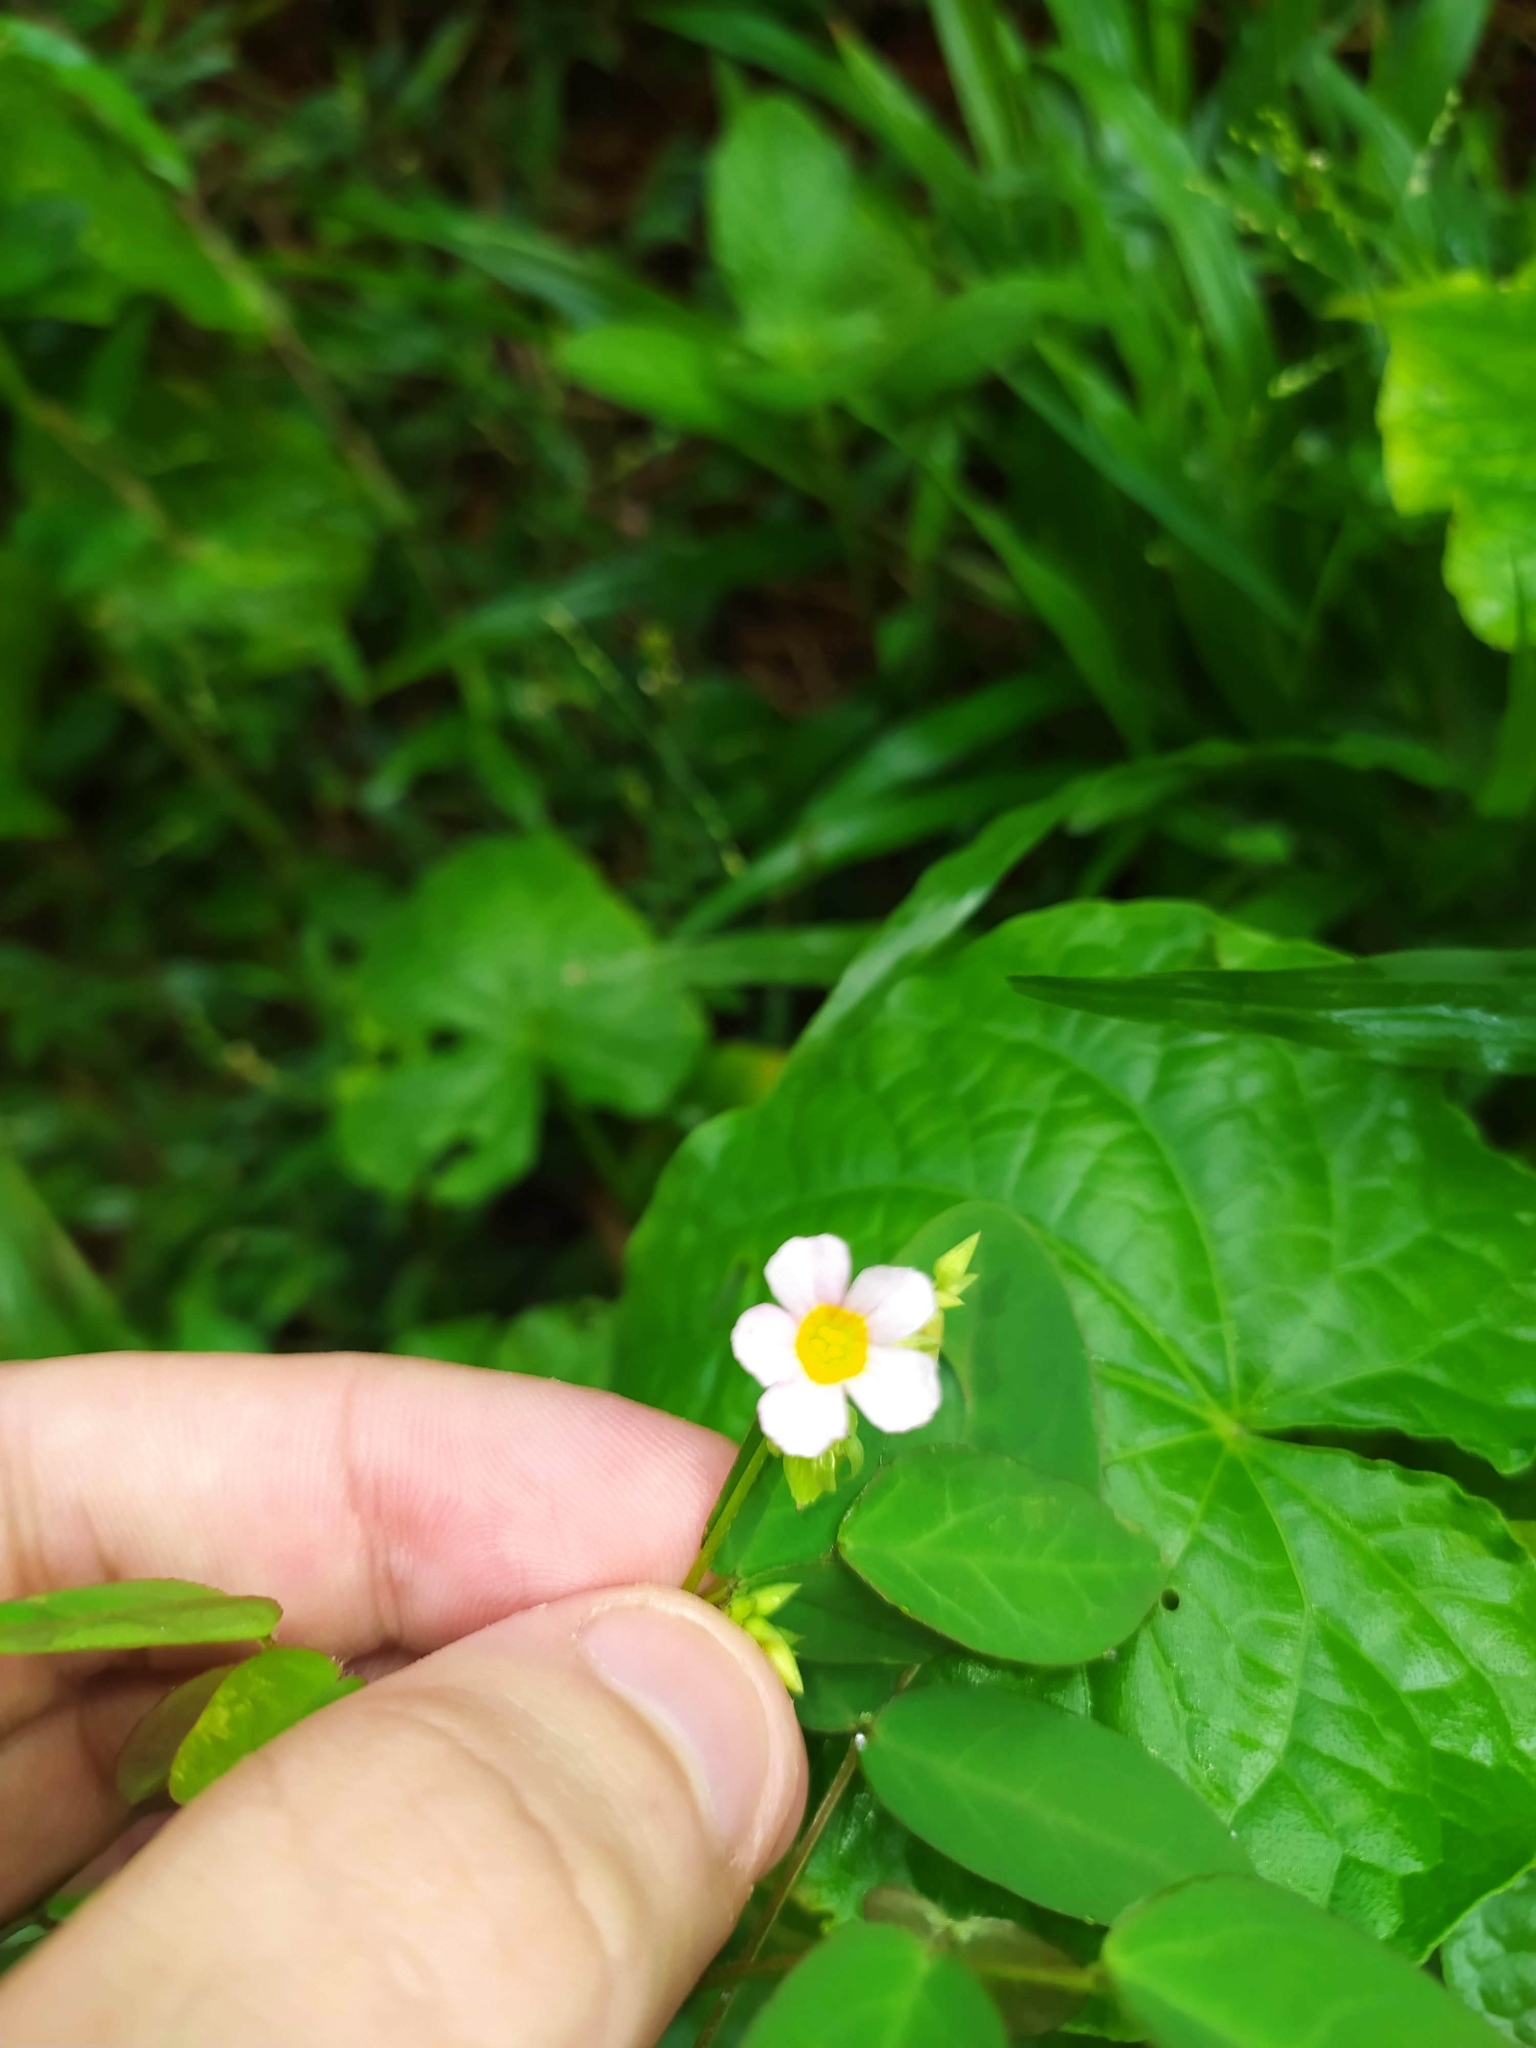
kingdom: Plantae
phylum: Tracheophyta
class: Magnoliopsida
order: Oxalidales
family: Oxalidaceae
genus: Oxalis
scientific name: Oxalis barrelieri
